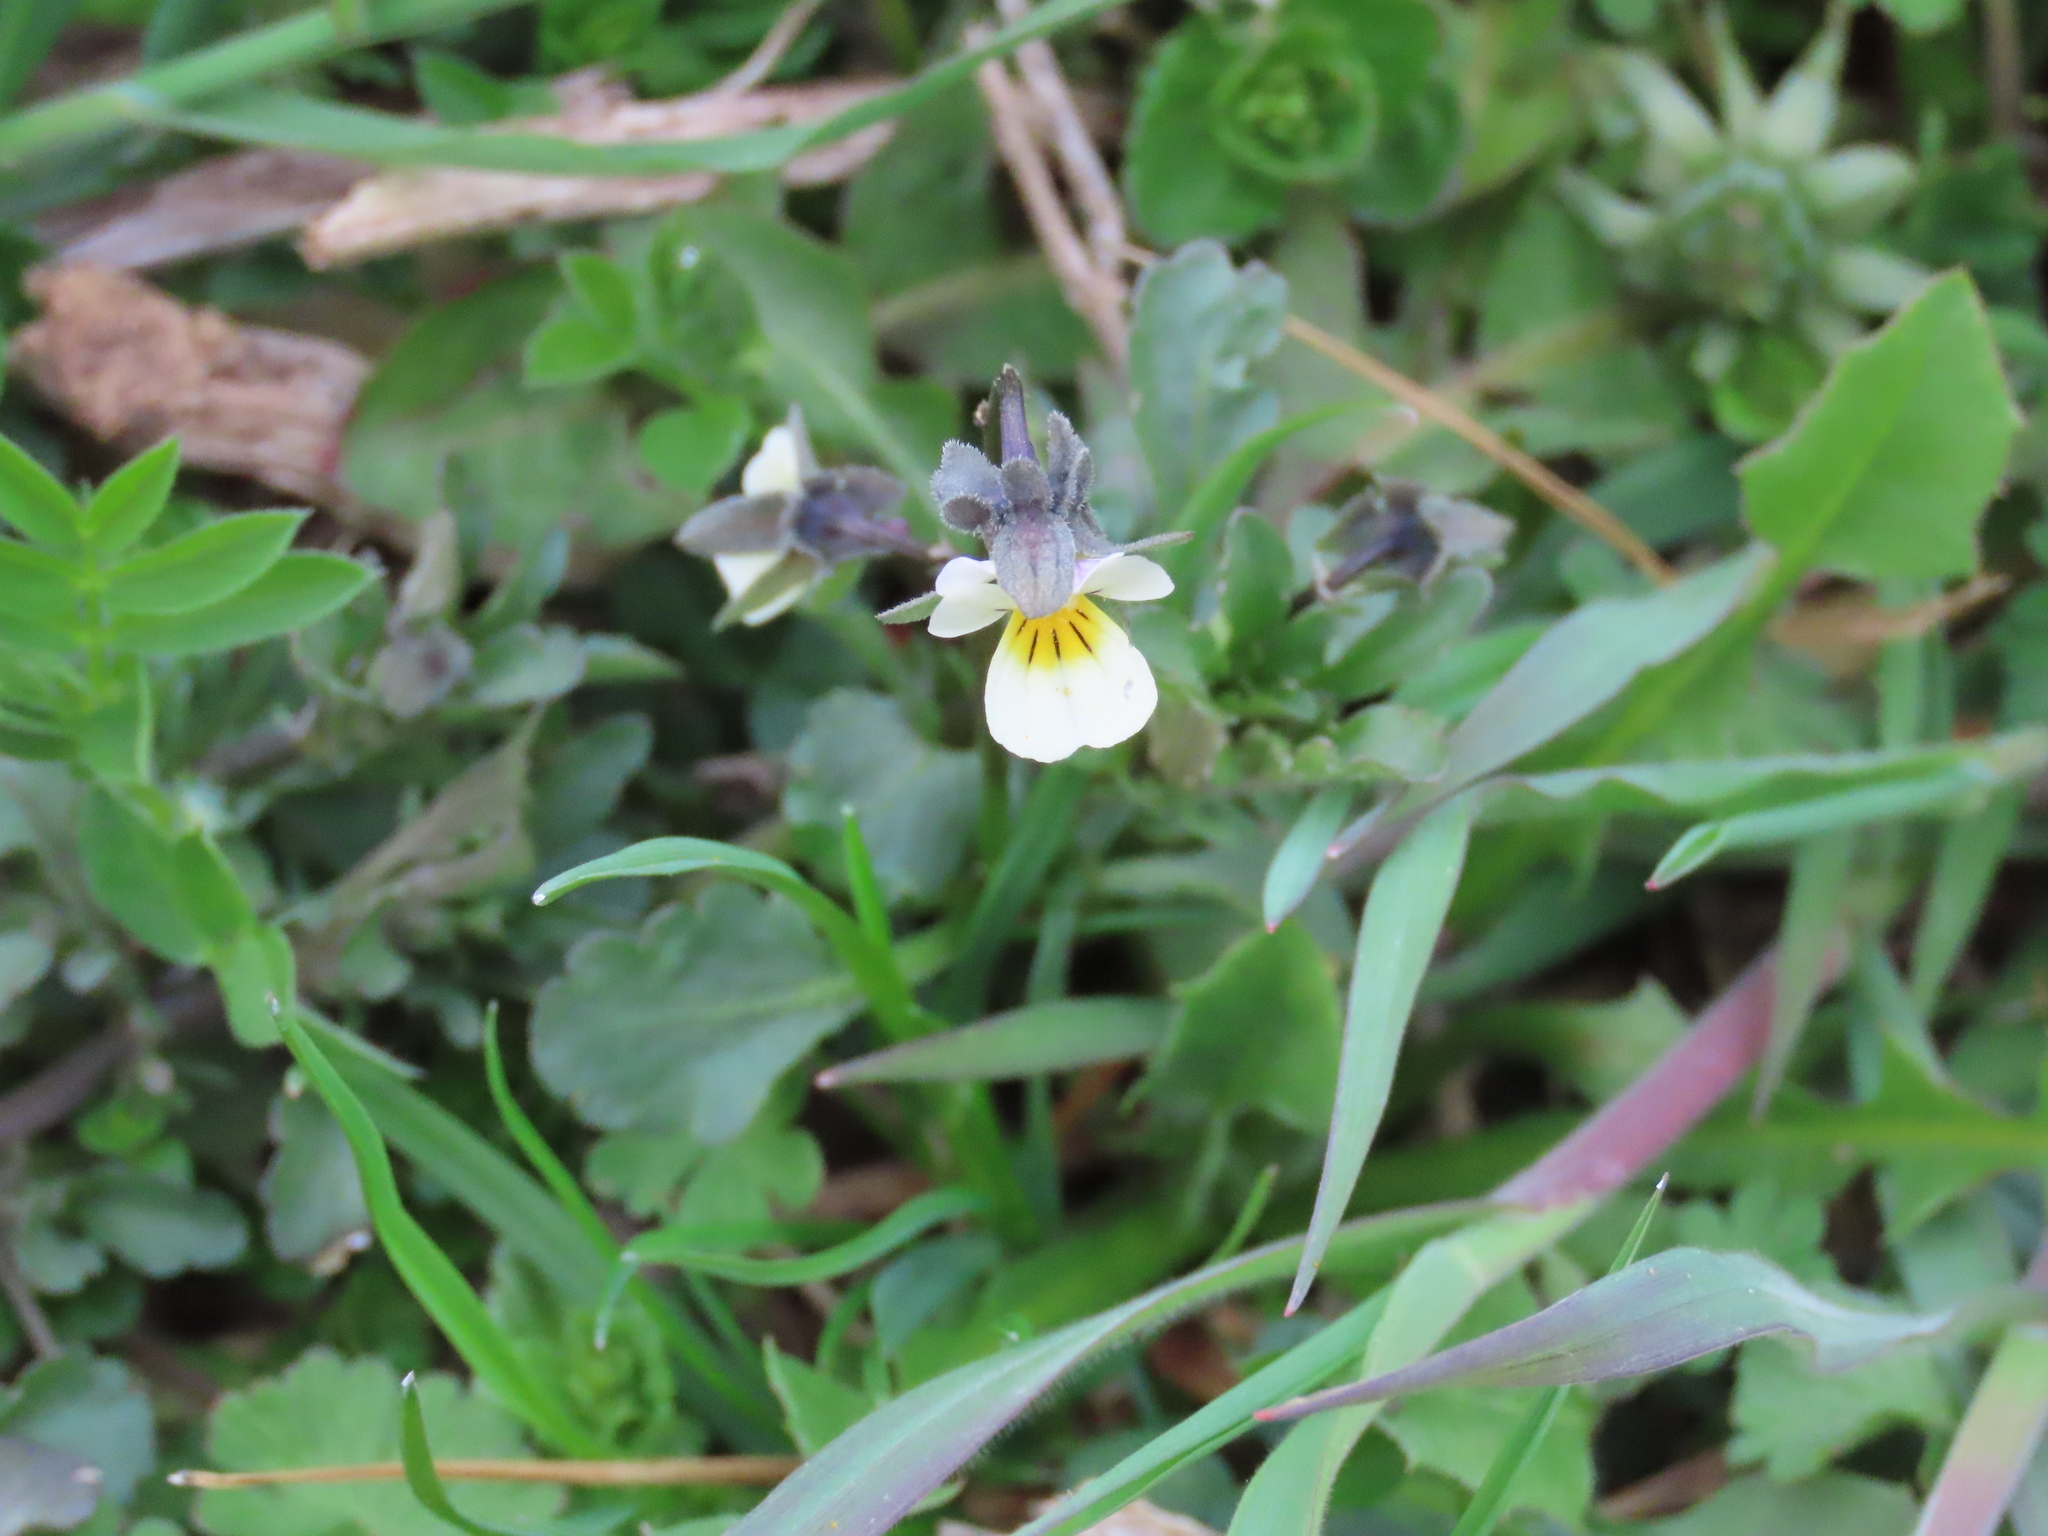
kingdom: Plantae
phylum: Tracheophyta
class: Magnoliopsida
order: Malpighiales
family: Violaceae
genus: Viola
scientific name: Viola arvensis
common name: Field pansy
